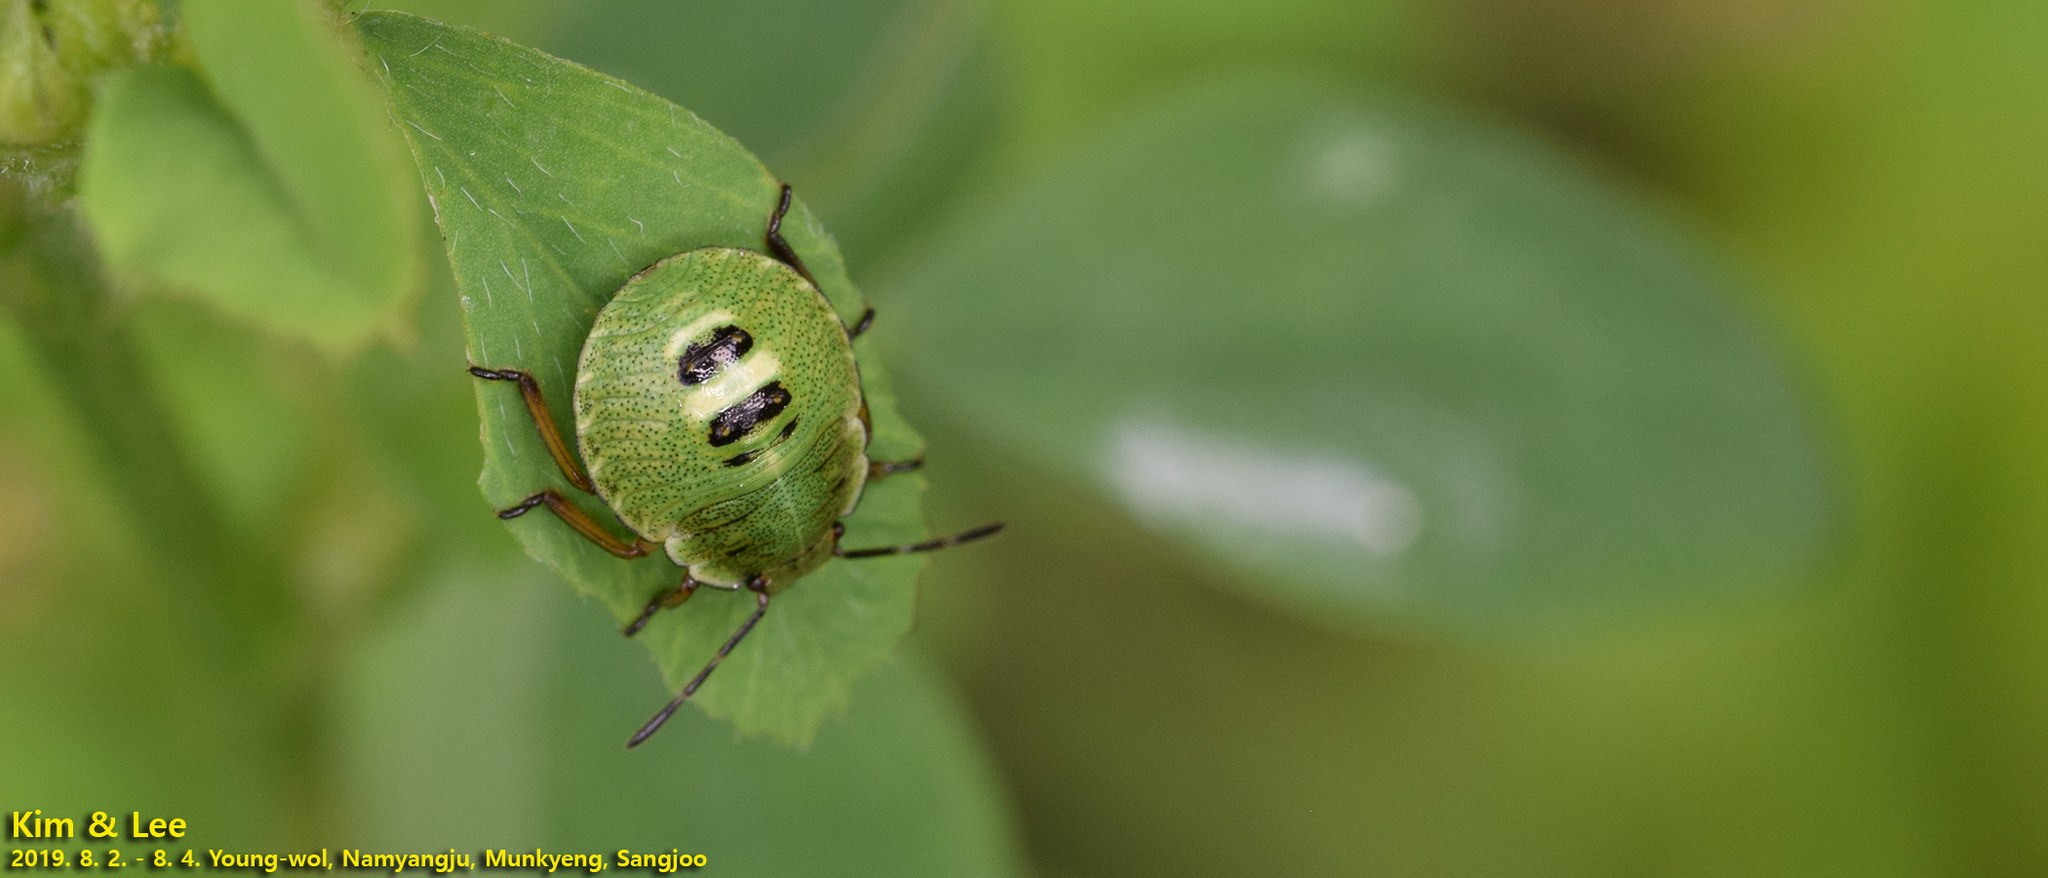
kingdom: Animalia
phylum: Arthropoda
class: Insecta
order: Hemiptera
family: Pentatomidae
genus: Palomena
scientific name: Palomena
